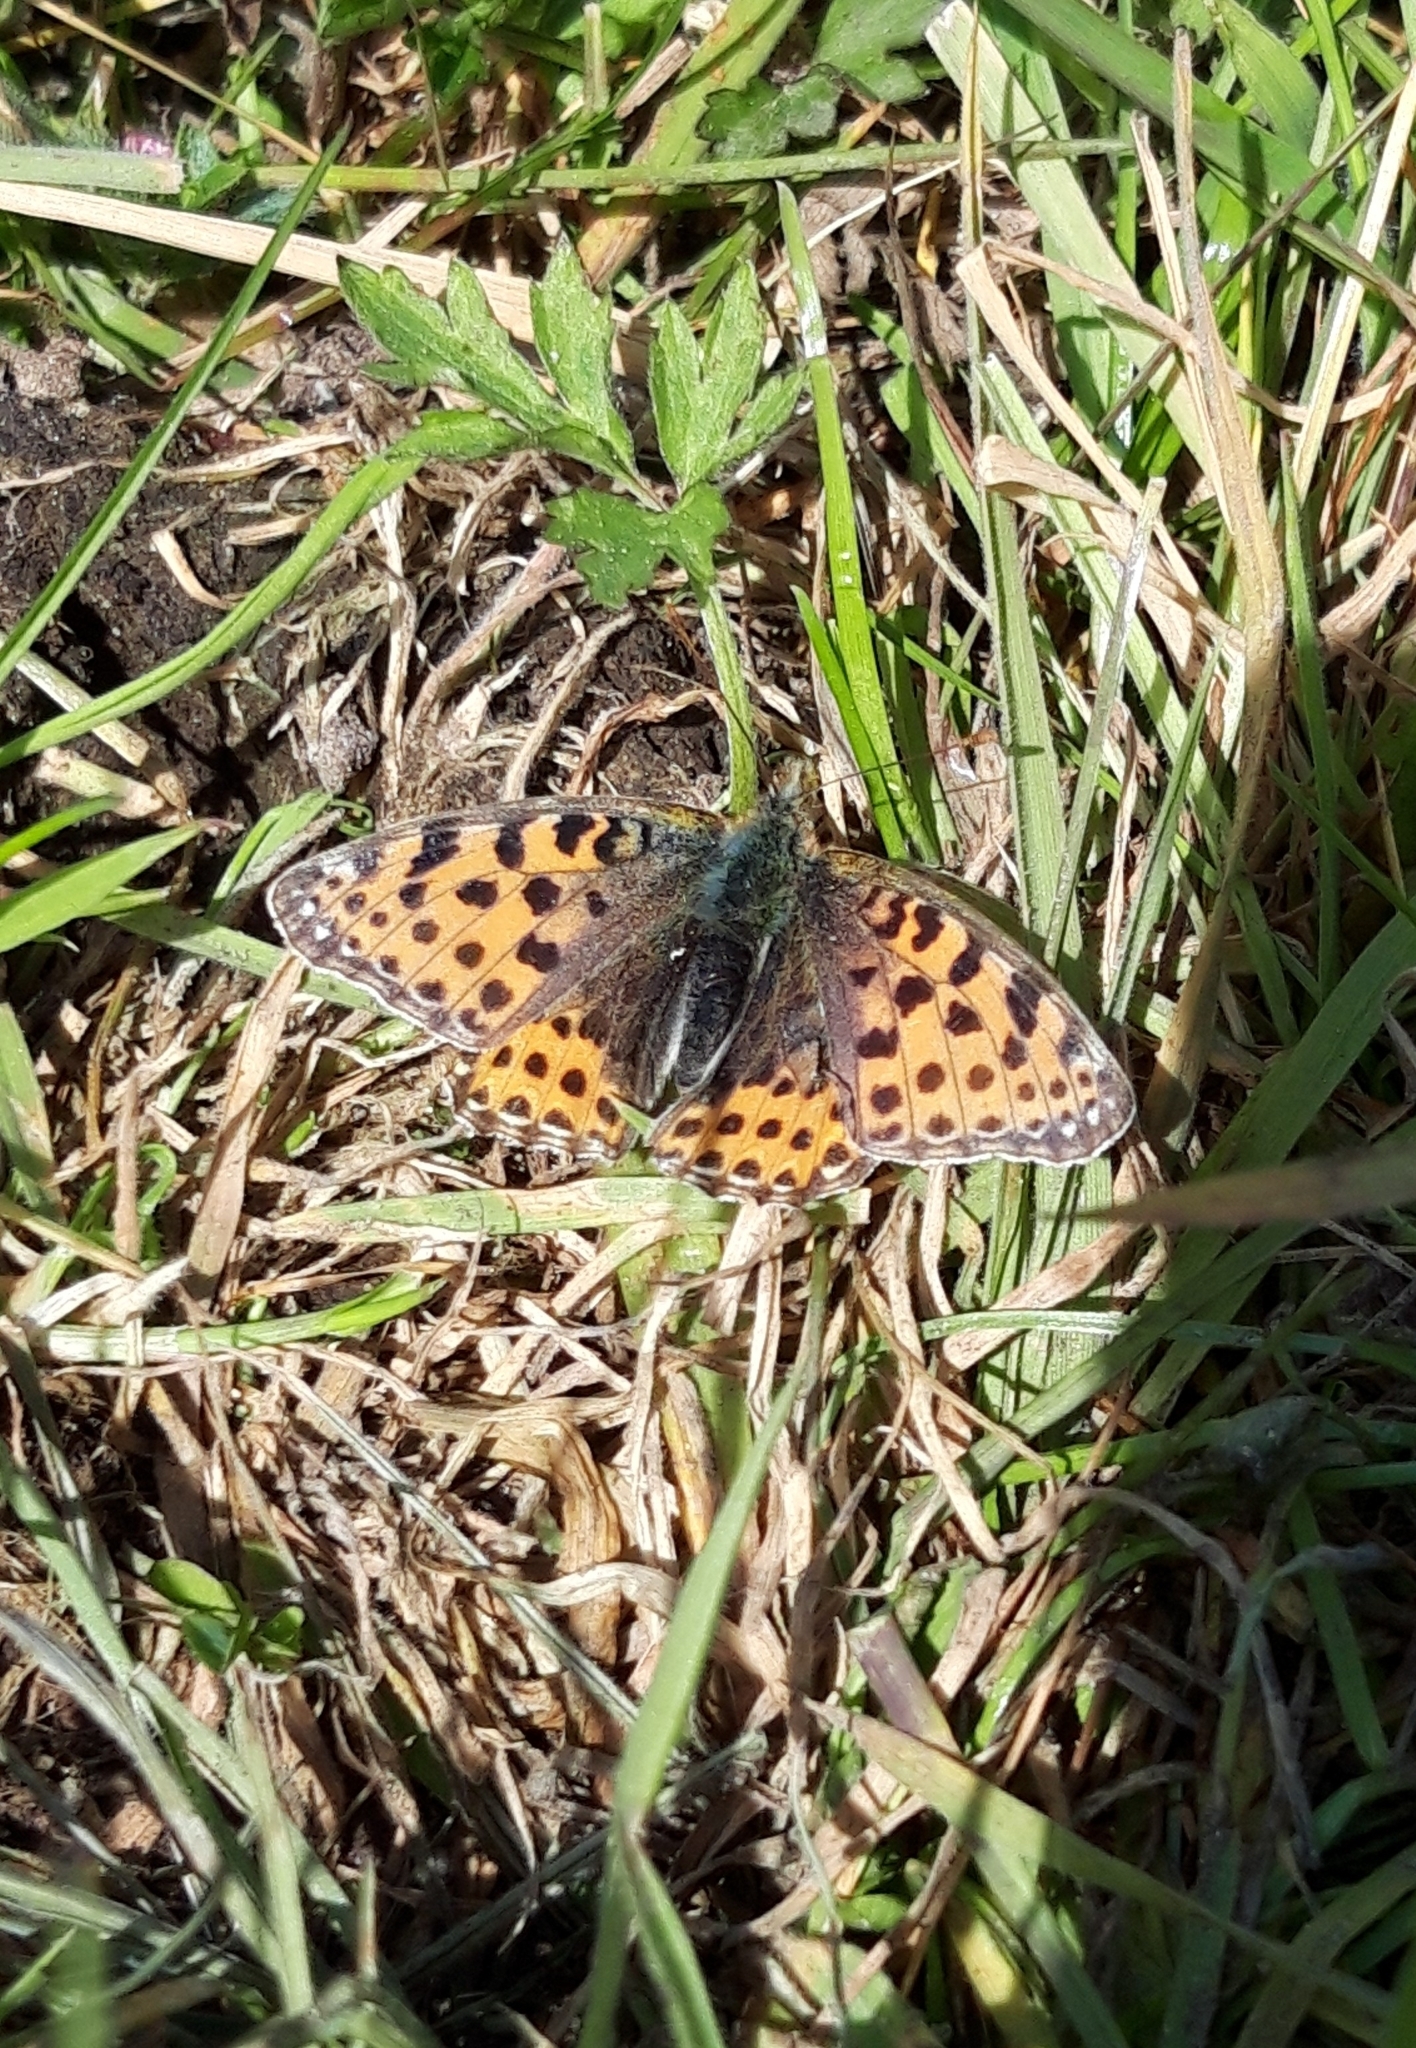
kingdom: Animalia
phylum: Arthropoda
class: Insecta
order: Lepidoptera
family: Nymphalidae
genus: Issoria
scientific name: Issoria lathonia
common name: Queen of spain fritillary
